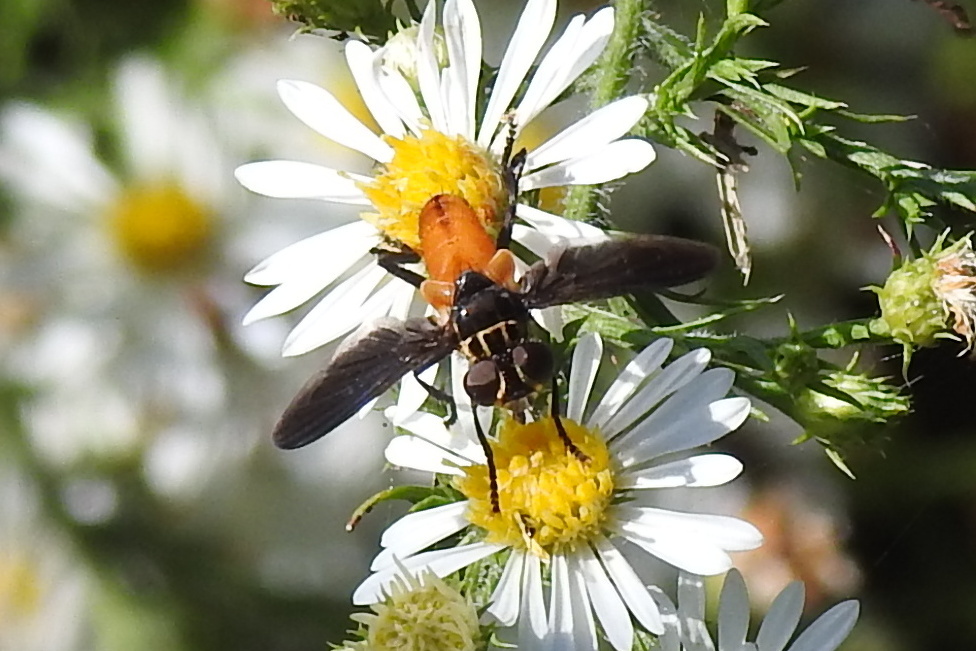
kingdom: Animalia
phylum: Arthropoda
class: Insecta
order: Diptera
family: Tachinidae
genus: Trichopoda
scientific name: Trichopoda pennipes
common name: Tachinid fly
